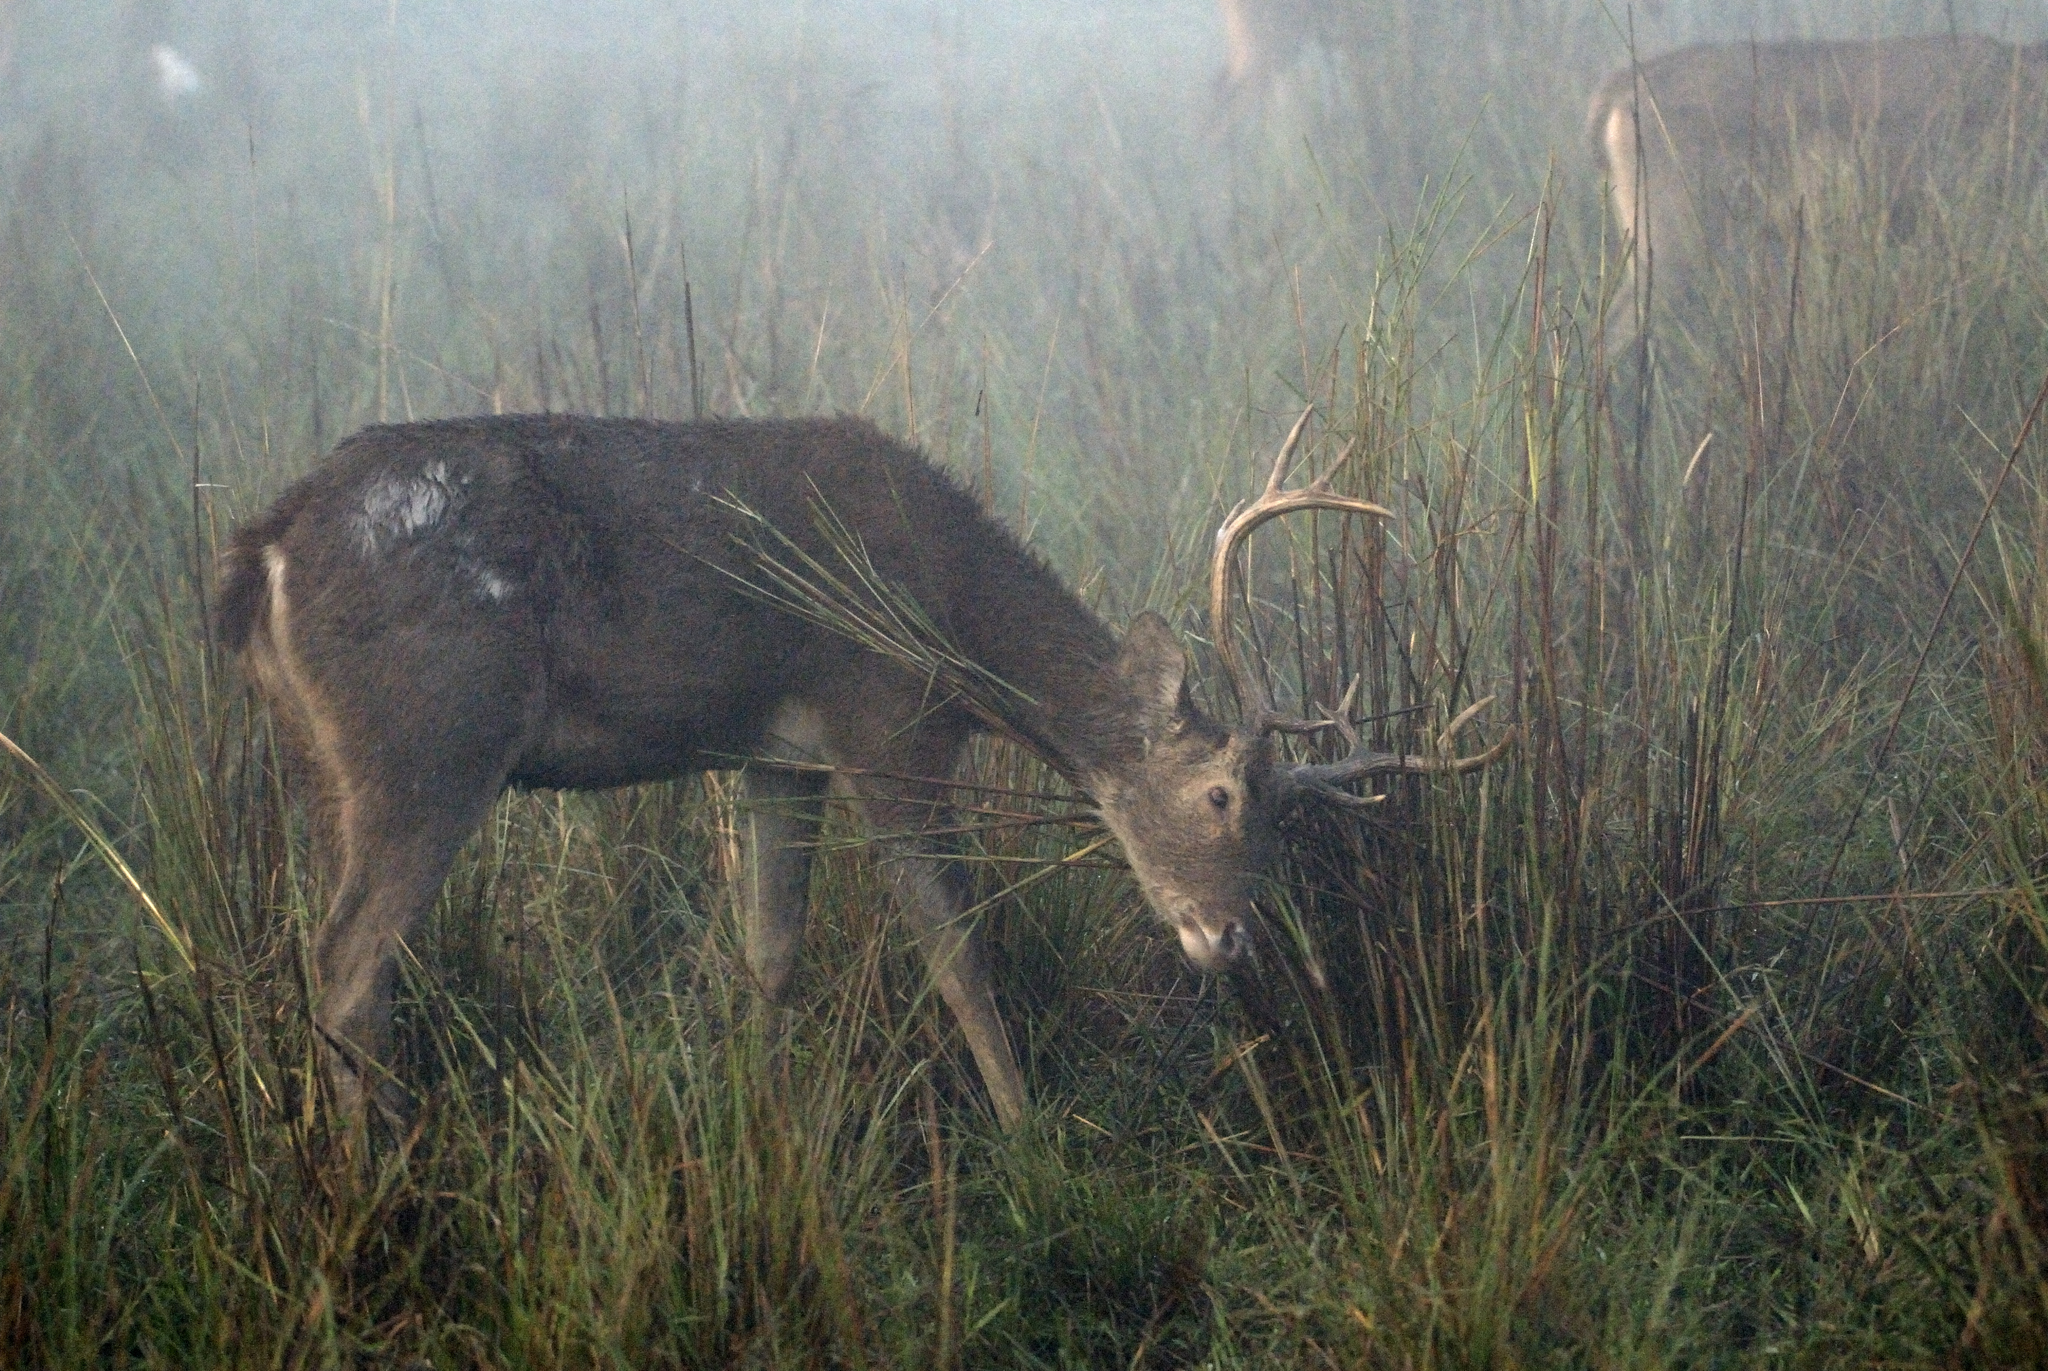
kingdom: Animalia
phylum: Chordata
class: Mammalia
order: Artiodactyla
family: Cervidae
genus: Rucervus
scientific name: Rucervus duvaucelii
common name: Barasingha
